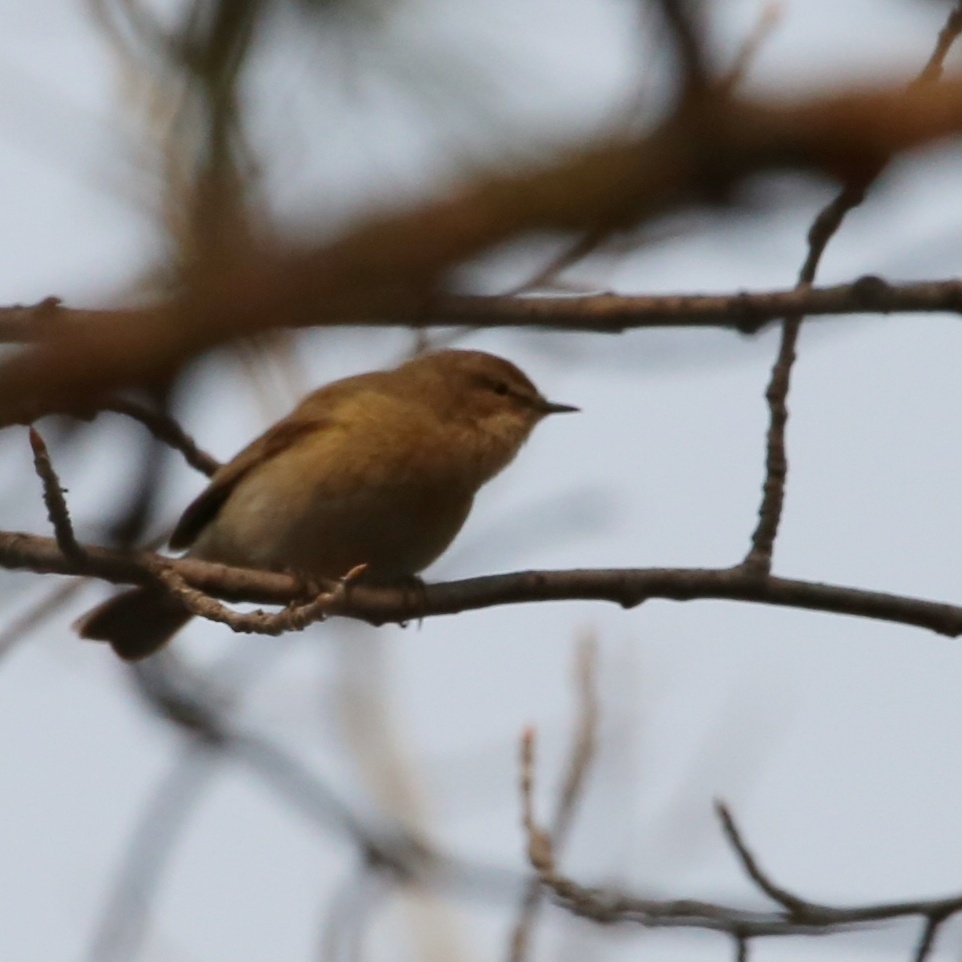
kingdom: Animalia
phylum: Chordata
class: Aves
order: Passeriformes
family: Phylloscopidae
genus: Phylloscopus
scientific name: Phylloscopus collybita
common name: Common chiffchaff
